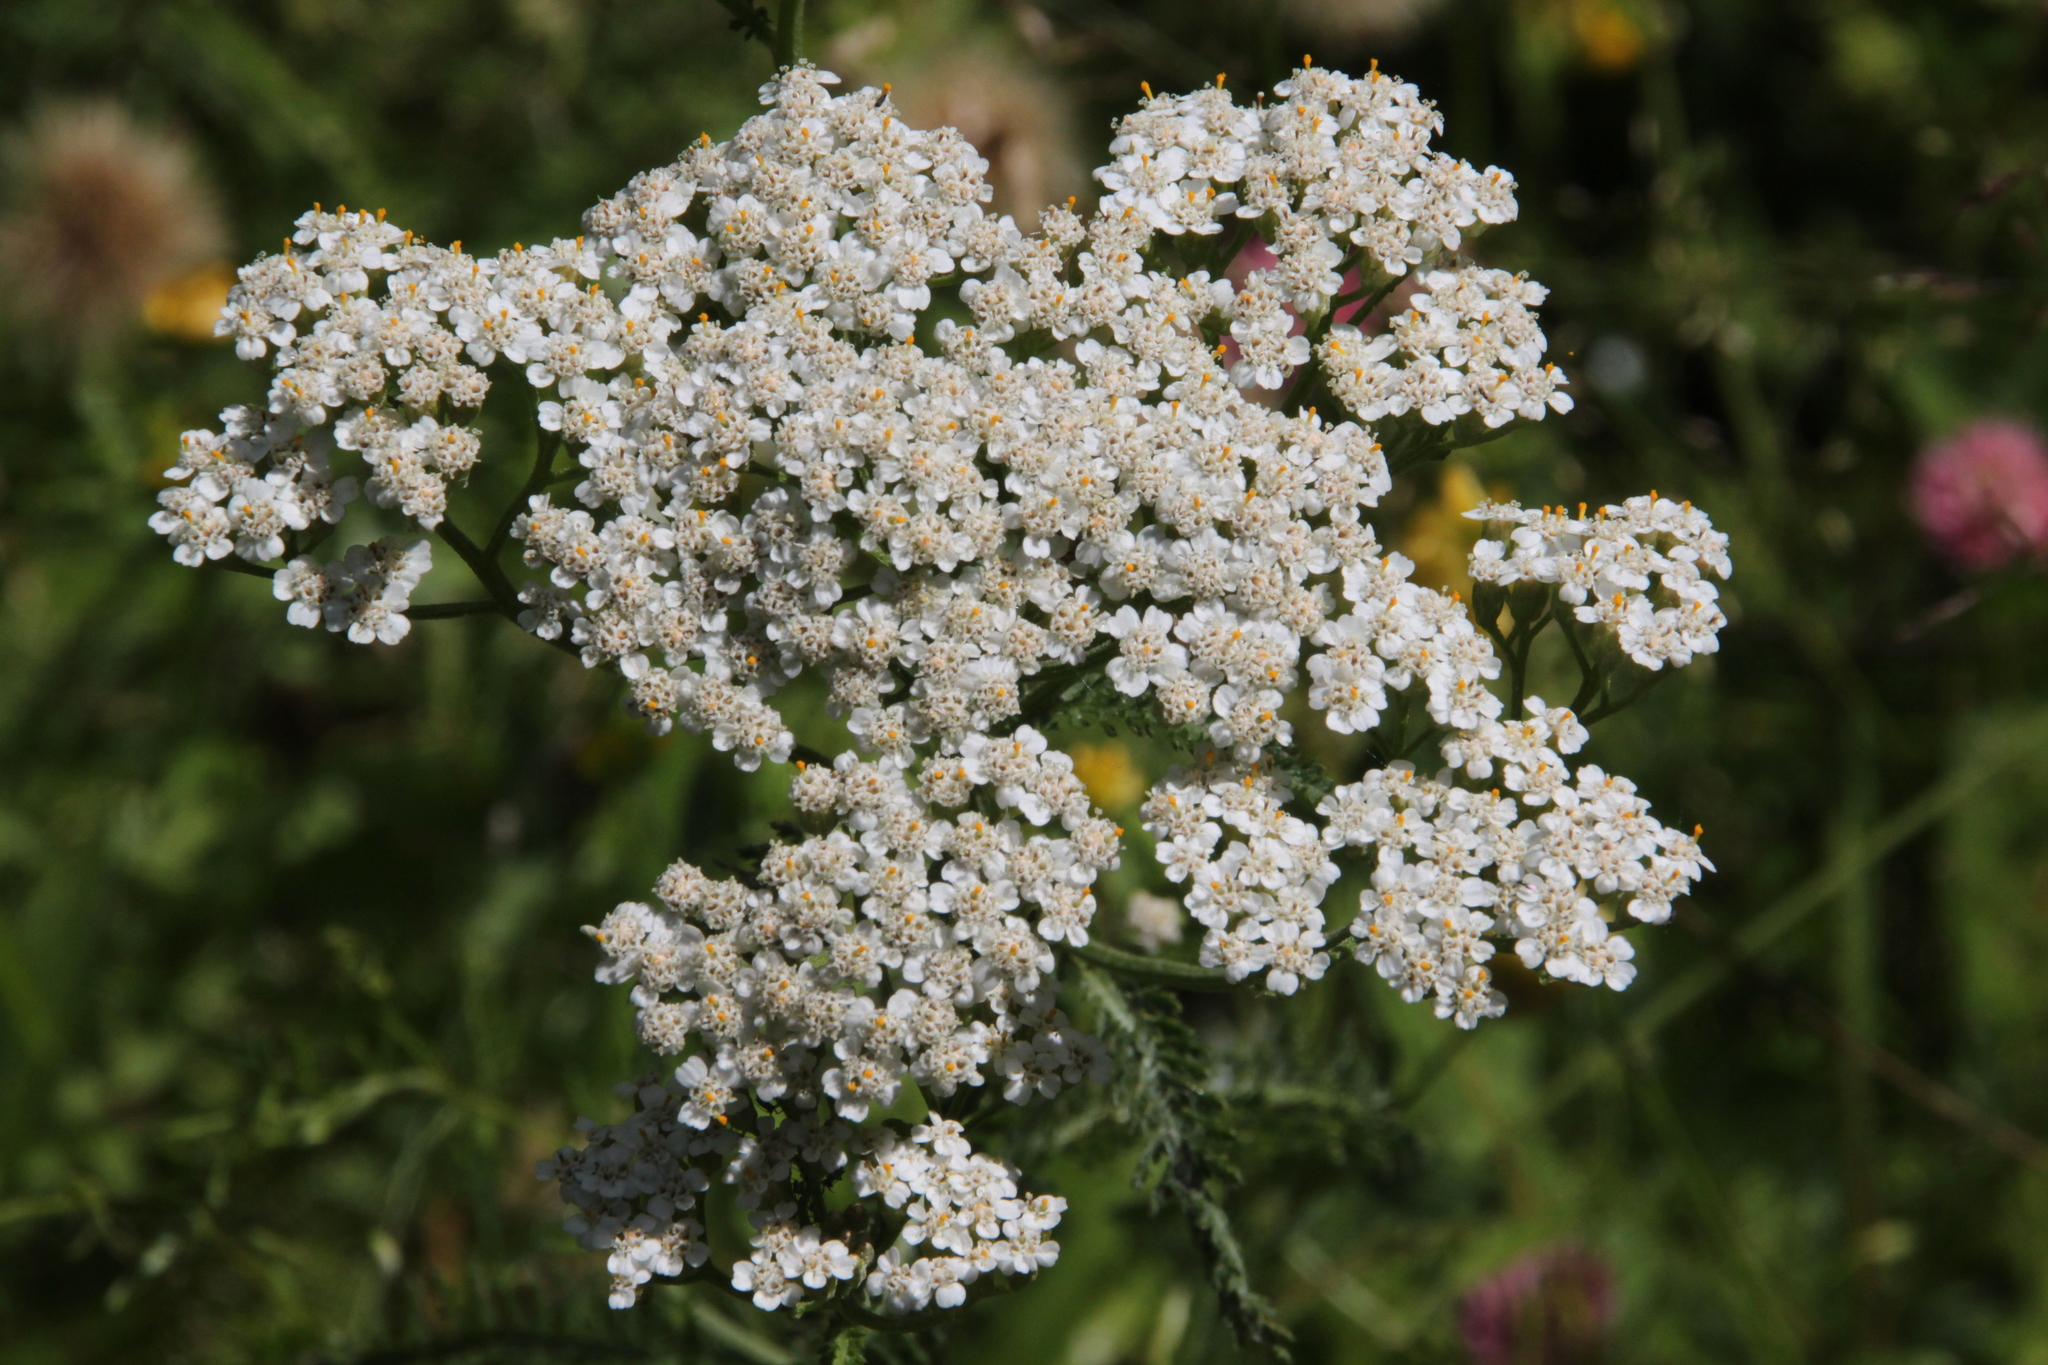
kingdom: Plantae
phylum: Tracheophyta
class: Magnoliopsida
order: Asterales
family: Asteraceae
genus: Achillea
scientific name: Achillea millefolium
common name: Yarrow
